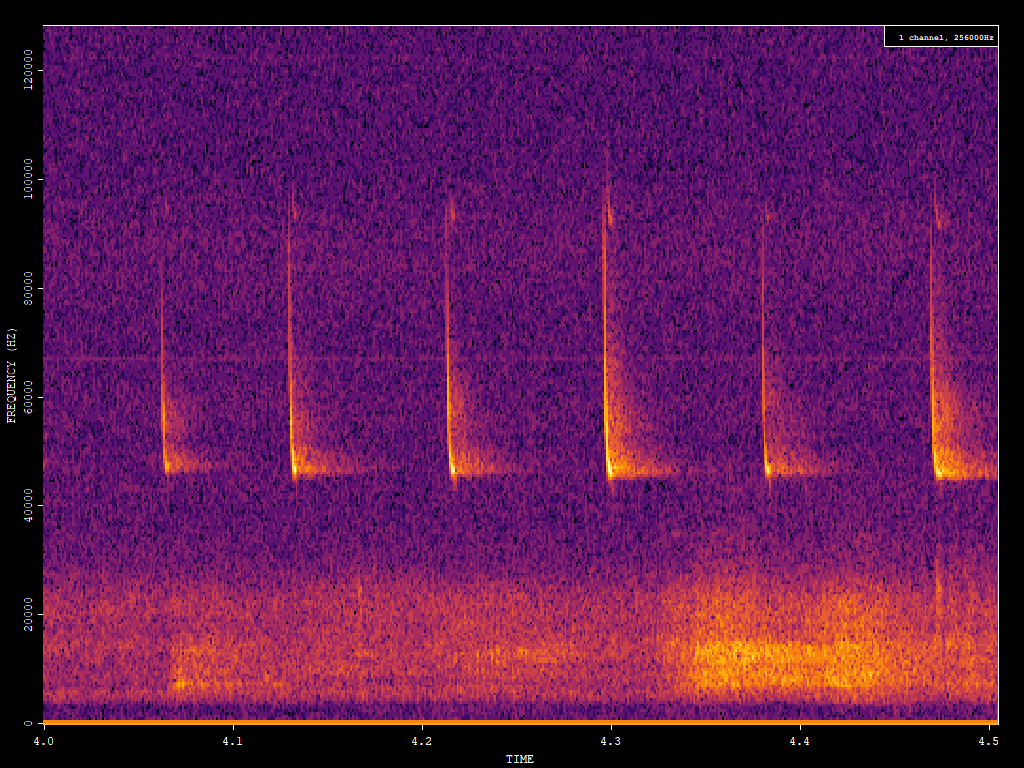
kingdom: Animalia
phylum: Chordata
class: Mammalia
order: Chiroptera
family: Vespertilionidae
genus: Pipistrellus
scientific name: Pipistrellus pipistrellus
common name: Common pipistrelle
